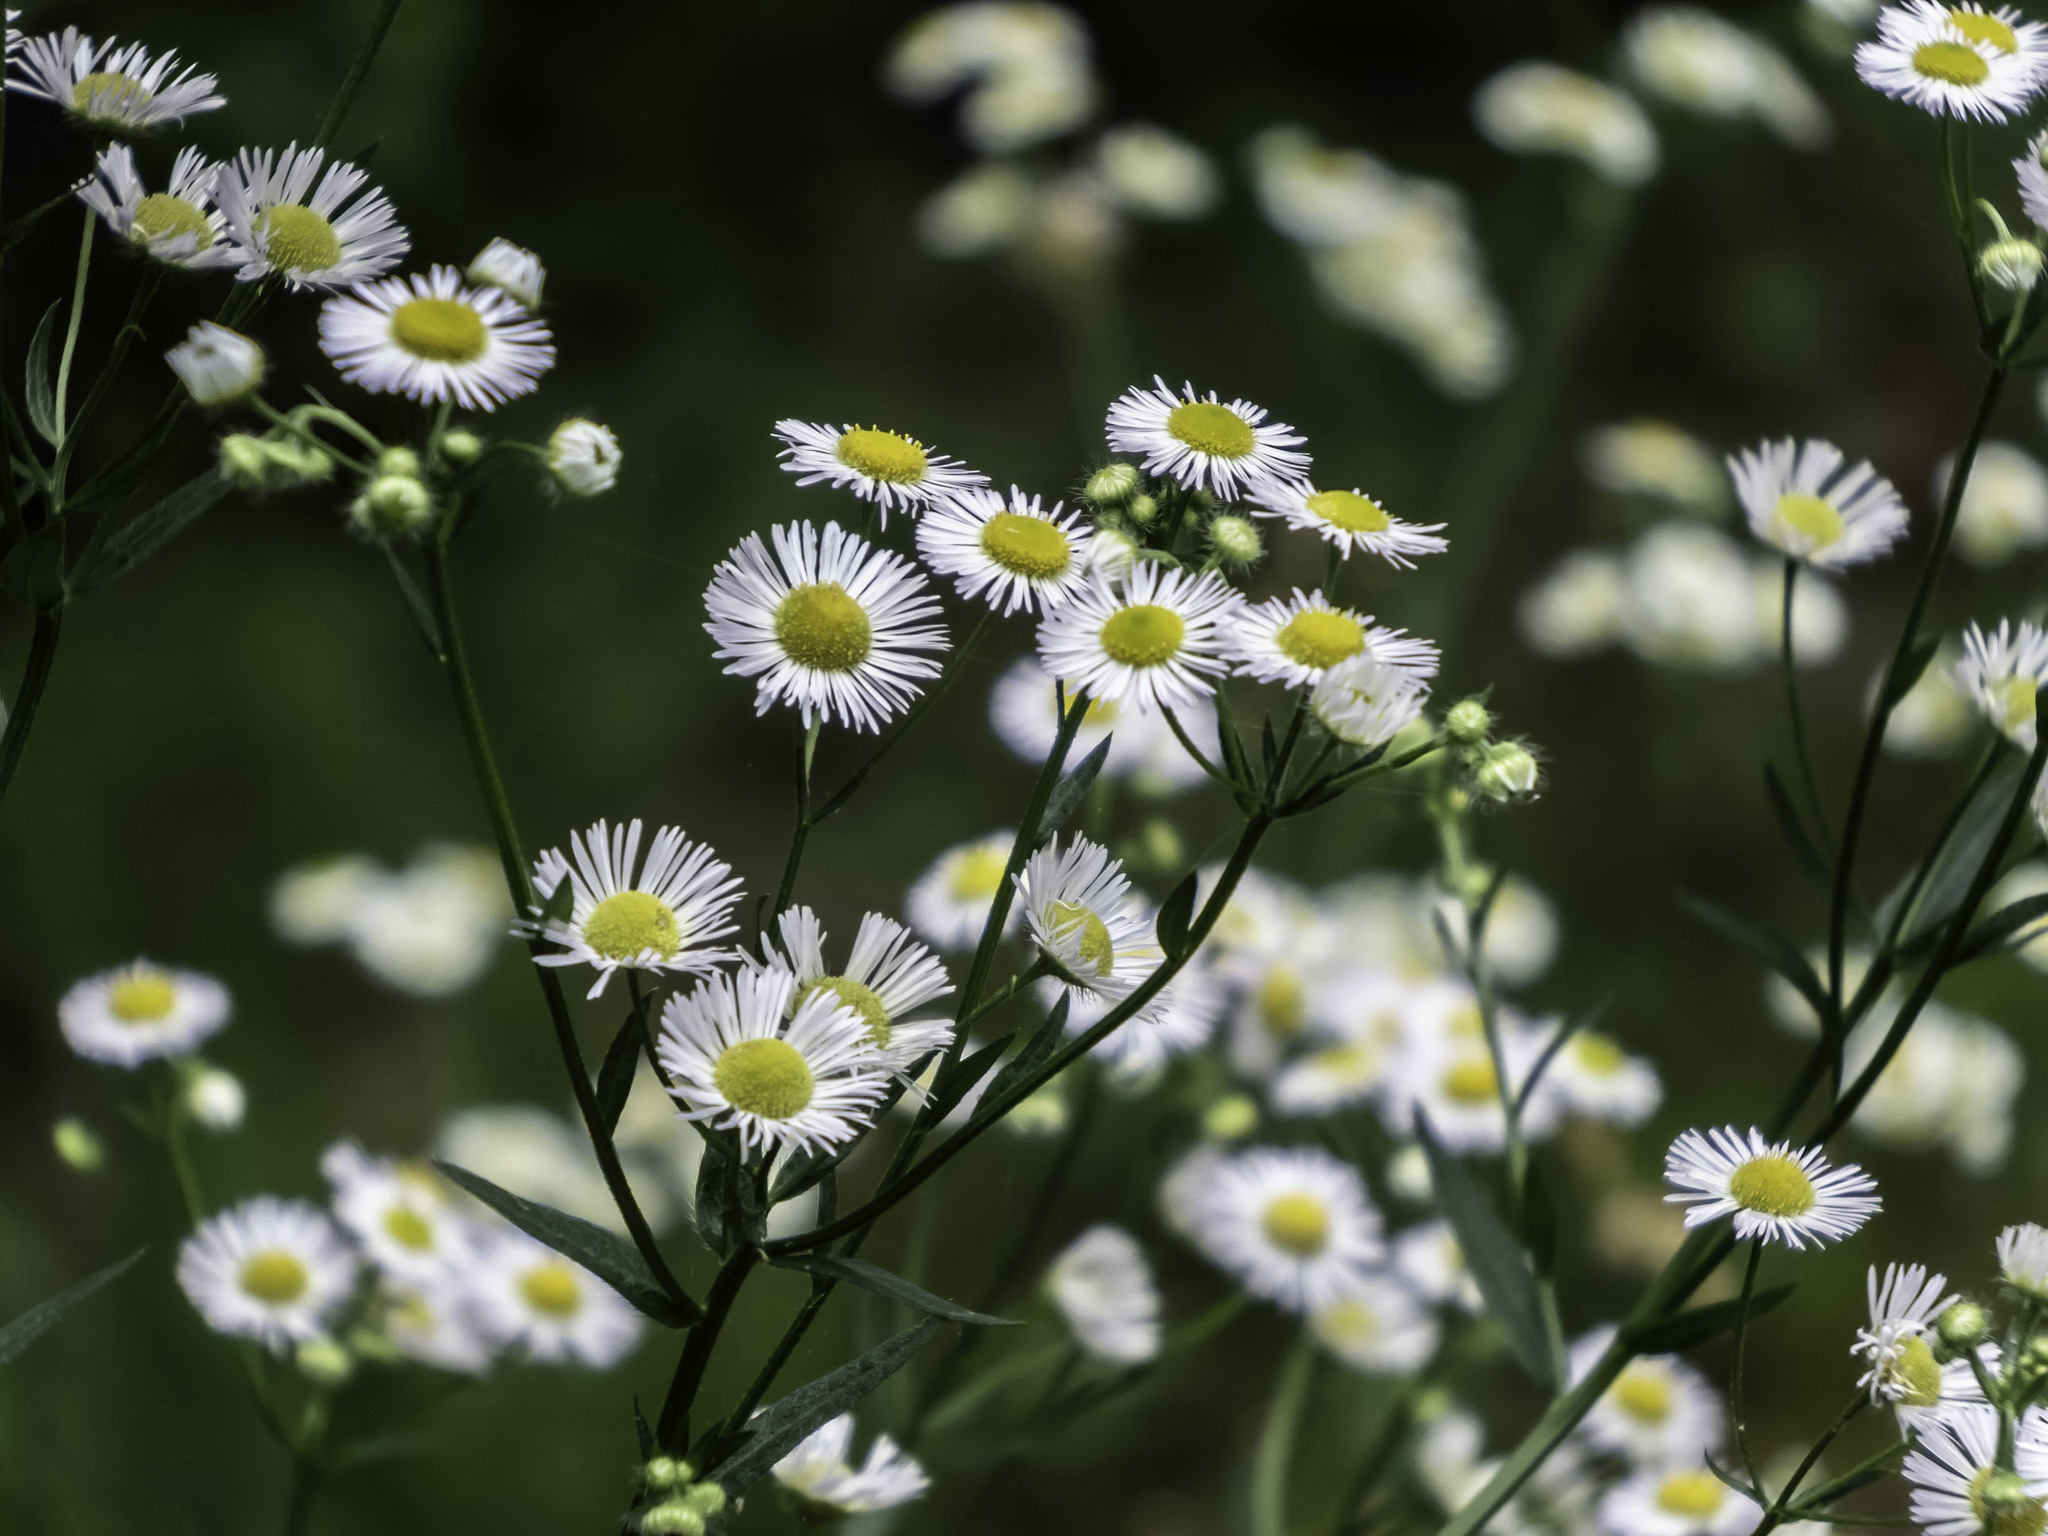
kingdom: Plantae
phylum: Tracheophyta
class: Magnoliopsida
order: Asterales
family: Asteraceae
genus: Erigeron
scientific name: Erigeron strigosus
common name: Common eastern fleabane
